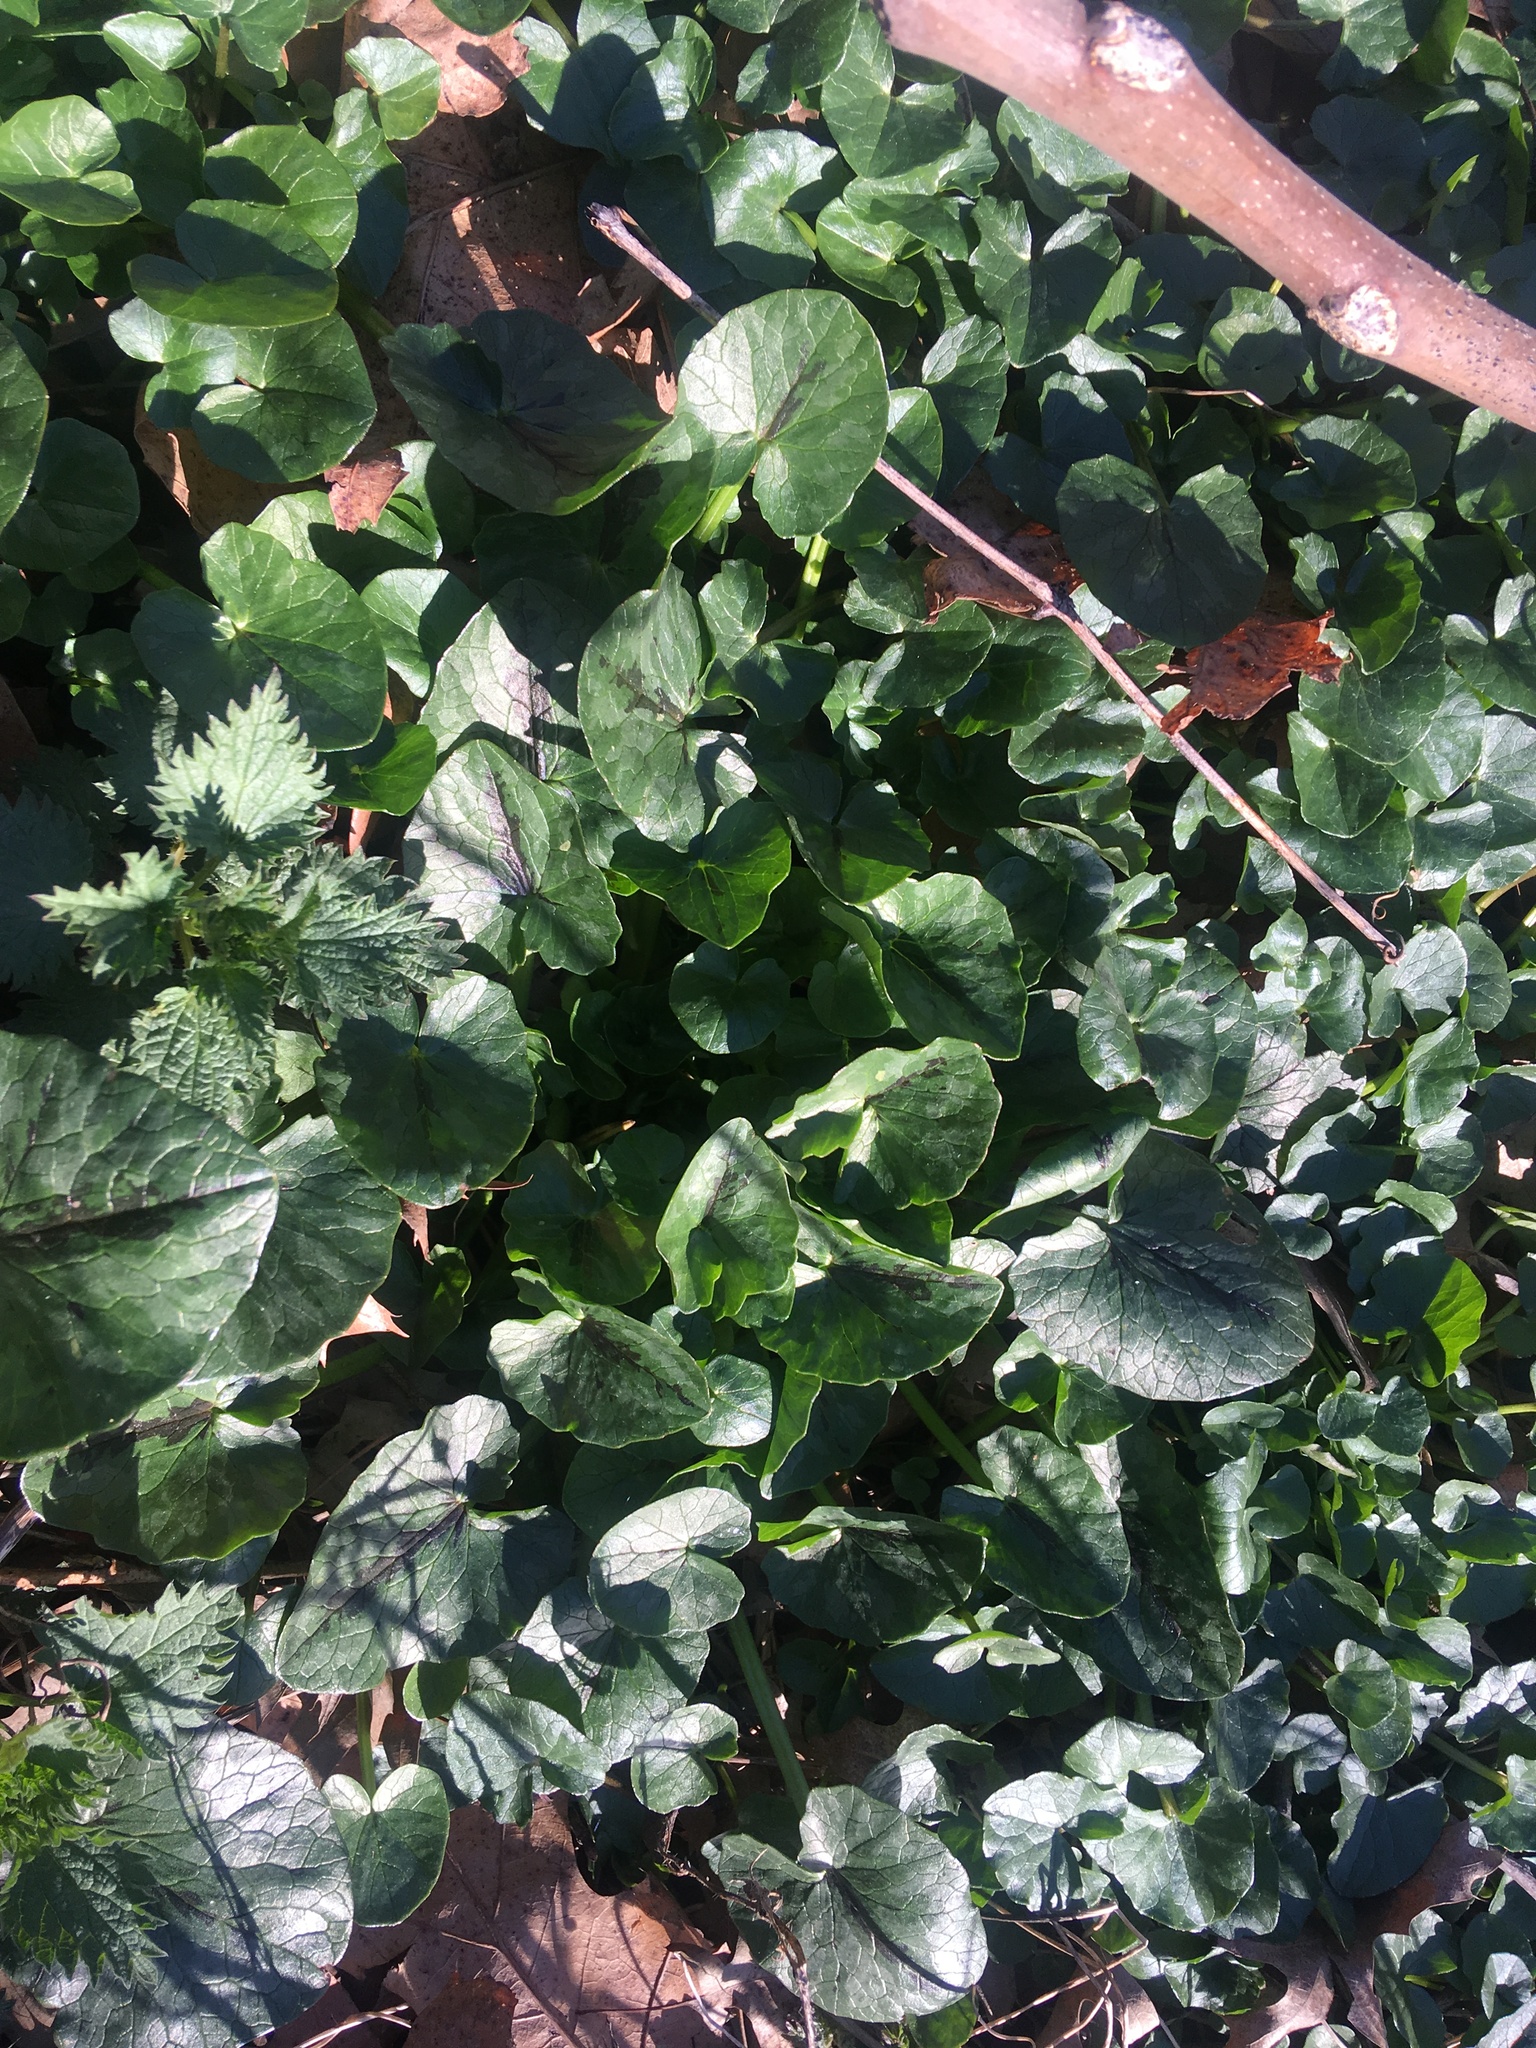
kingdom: Plantae
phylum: Tracheophyta
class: Magnoliopsida
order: Ranunculales
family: Ranunculaceae
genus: Ficaria
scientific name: Ficaria verna
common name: Lesser celandine
